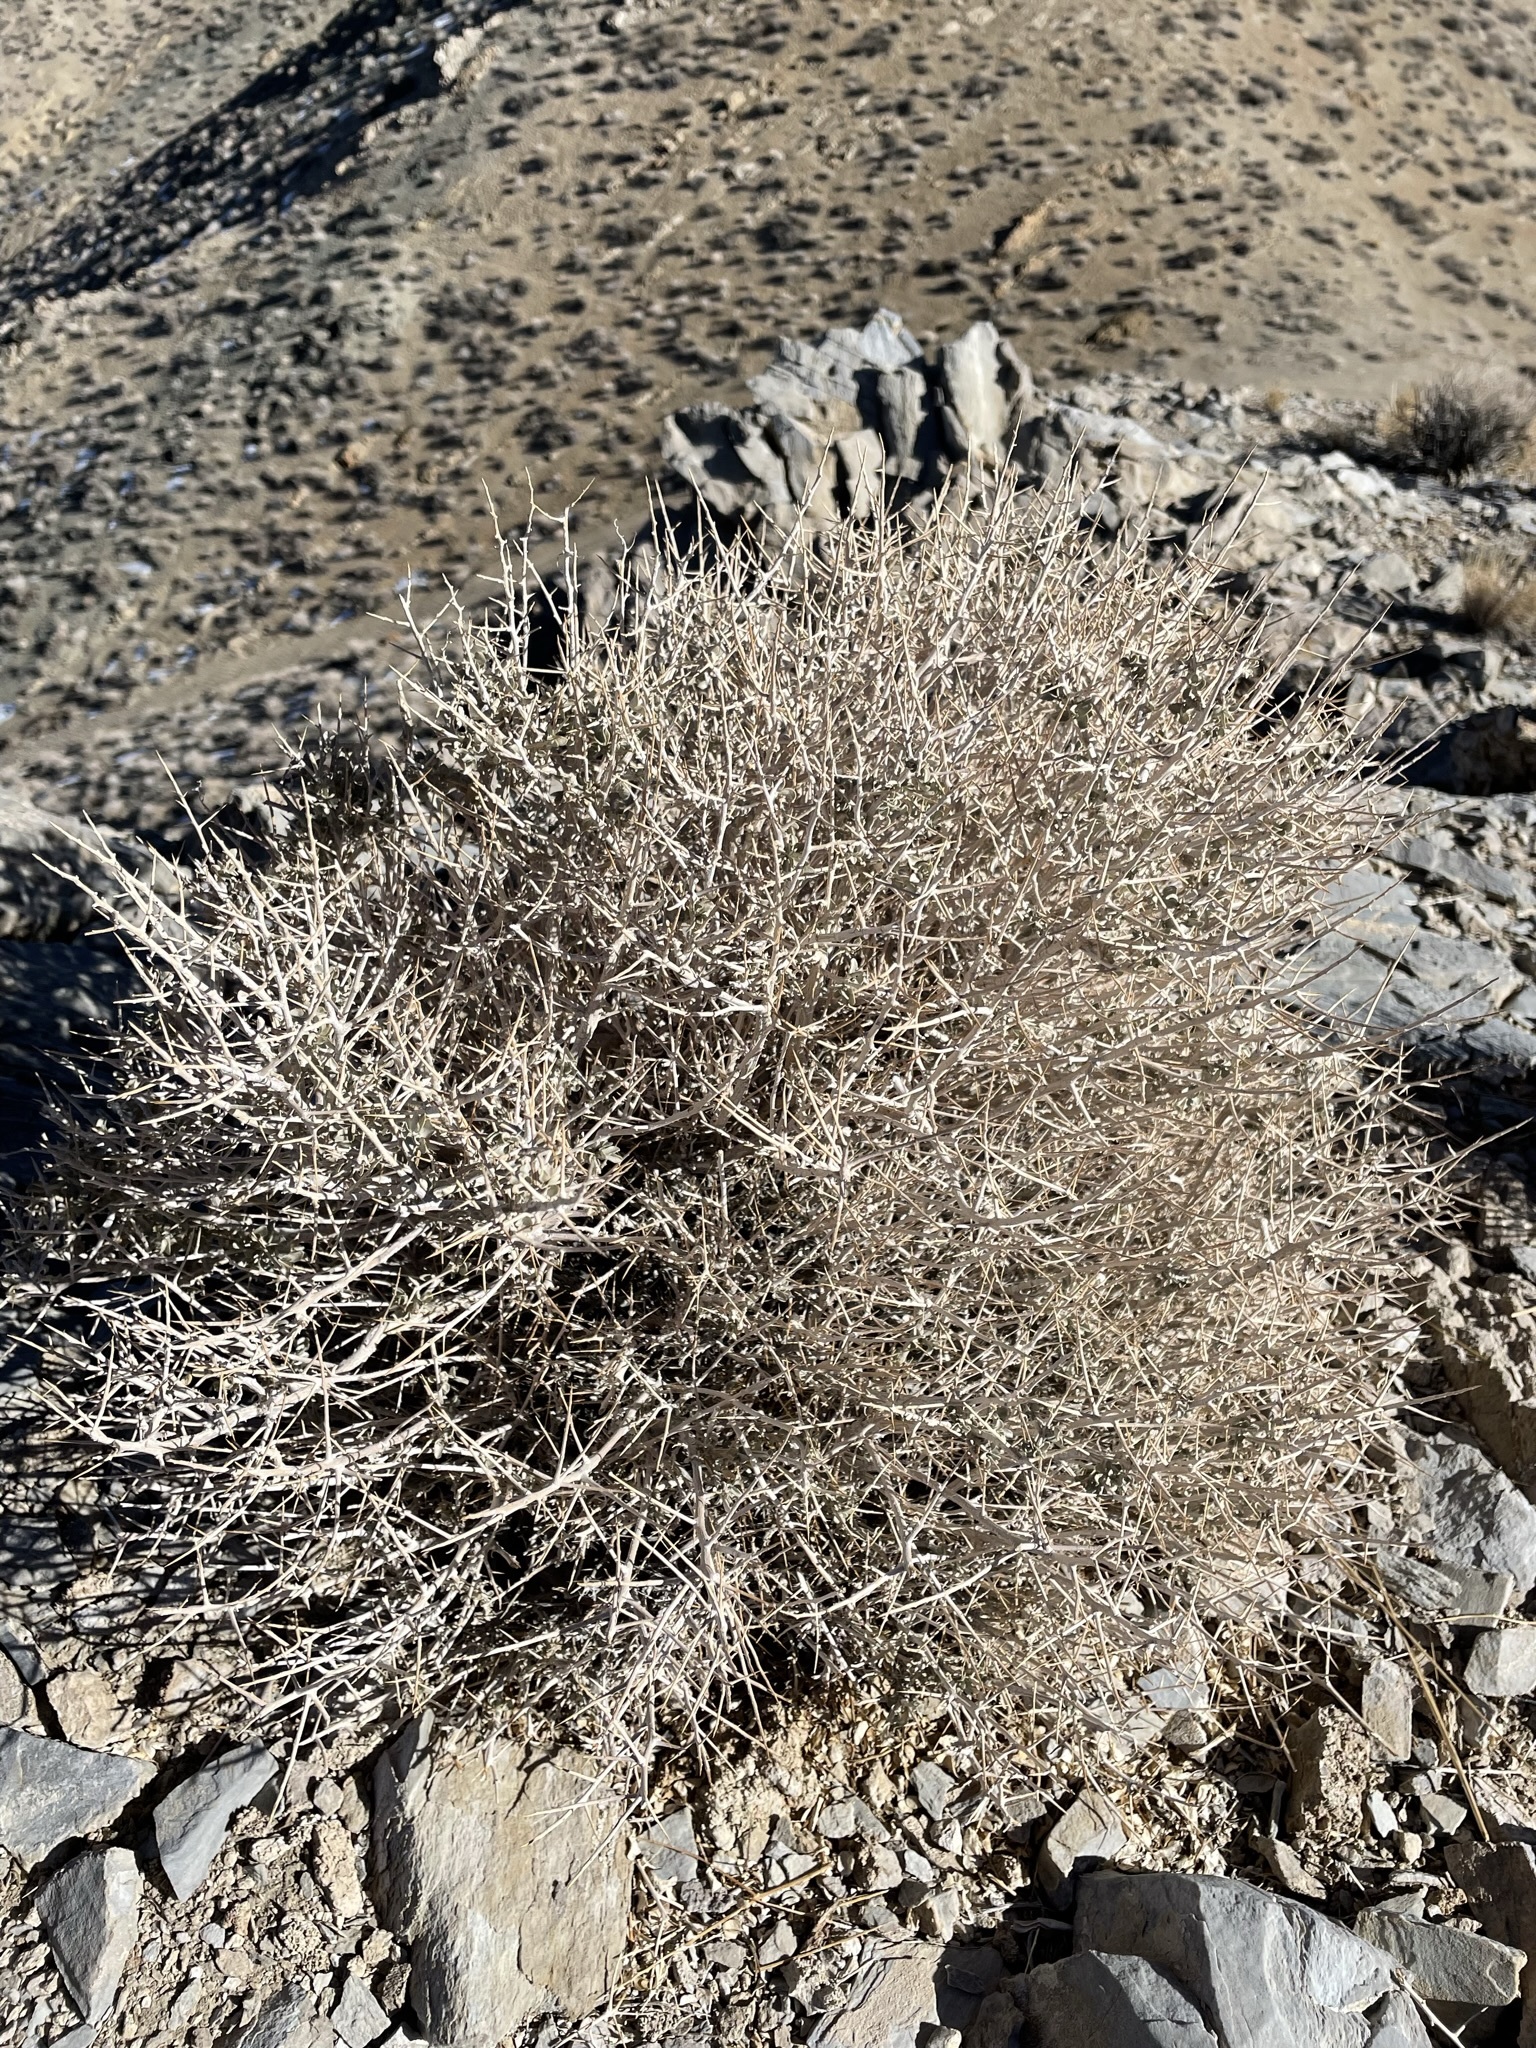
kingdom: Plantae
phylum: Tracheophyta
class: Magnoliopsida
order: Caryophyllales
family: Amaranthaceae
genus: Atriplex
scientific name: Atriplex confertifolia
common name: Shadscale
